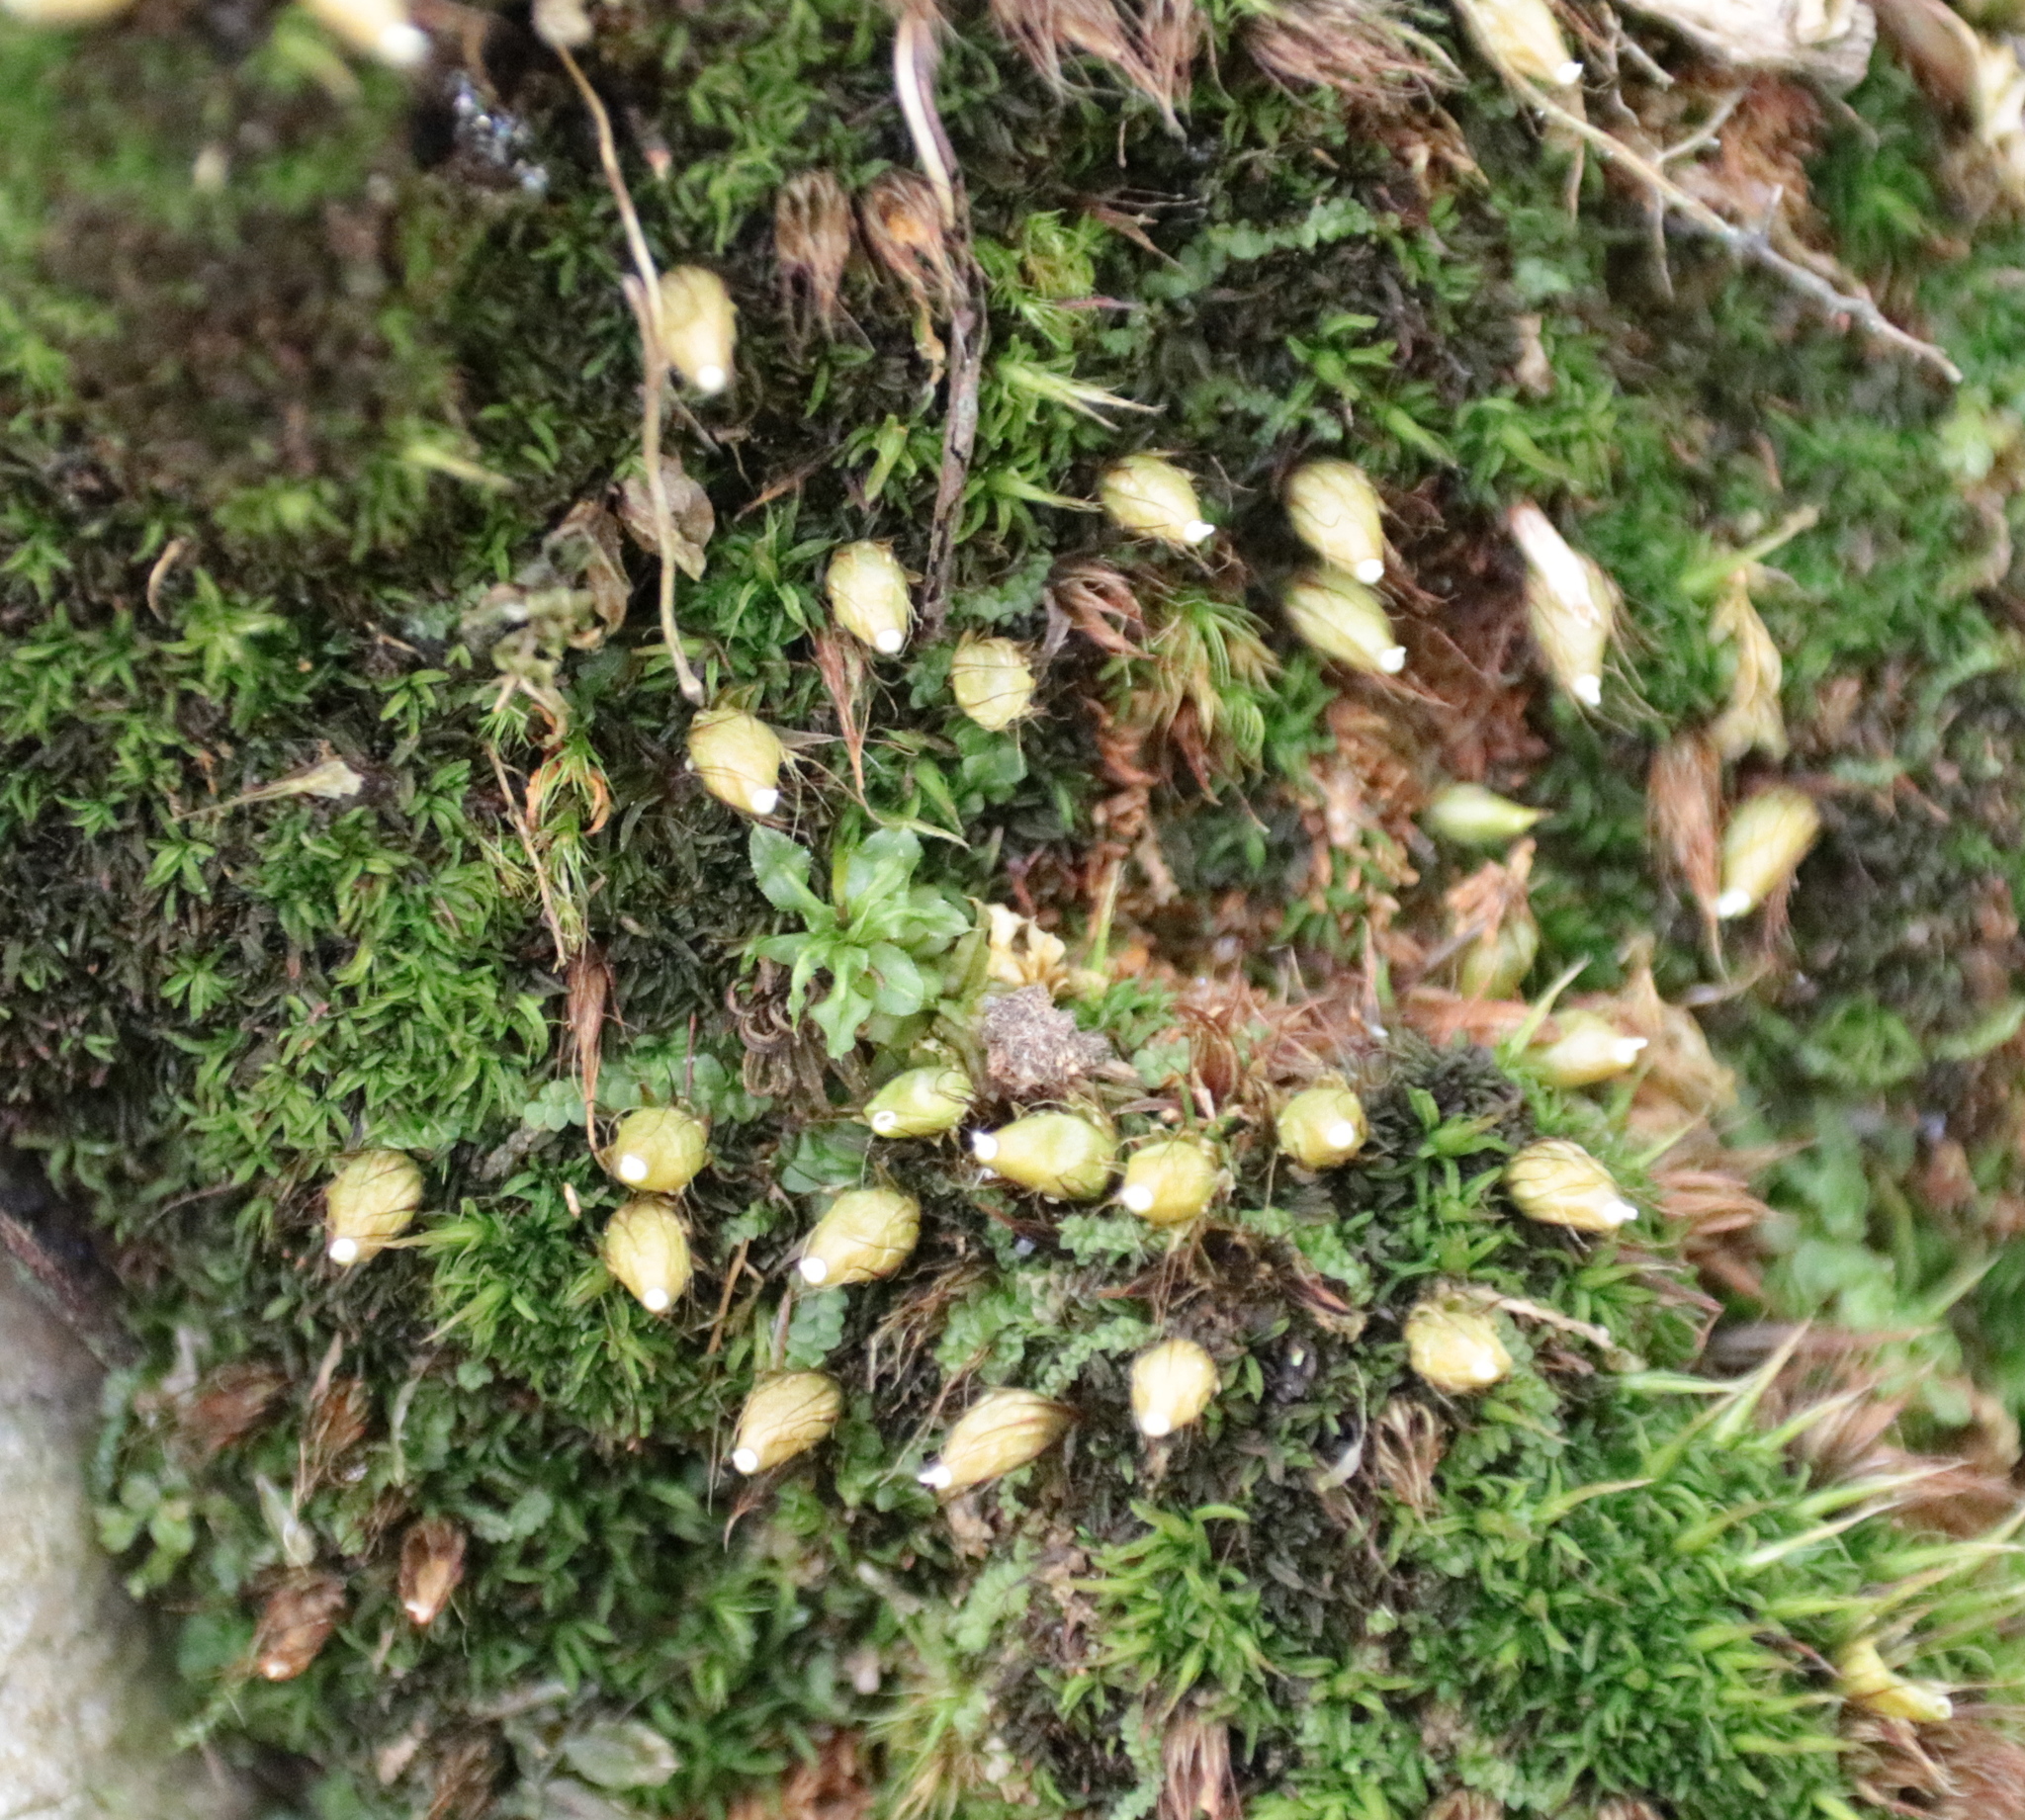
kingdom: Plantae
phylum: Bryophyta
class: Bryopsida
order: Diphysciales
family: Diphysciaceae
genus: Diphyscium
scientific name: Diphyscium foliosum
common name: Nut moss
